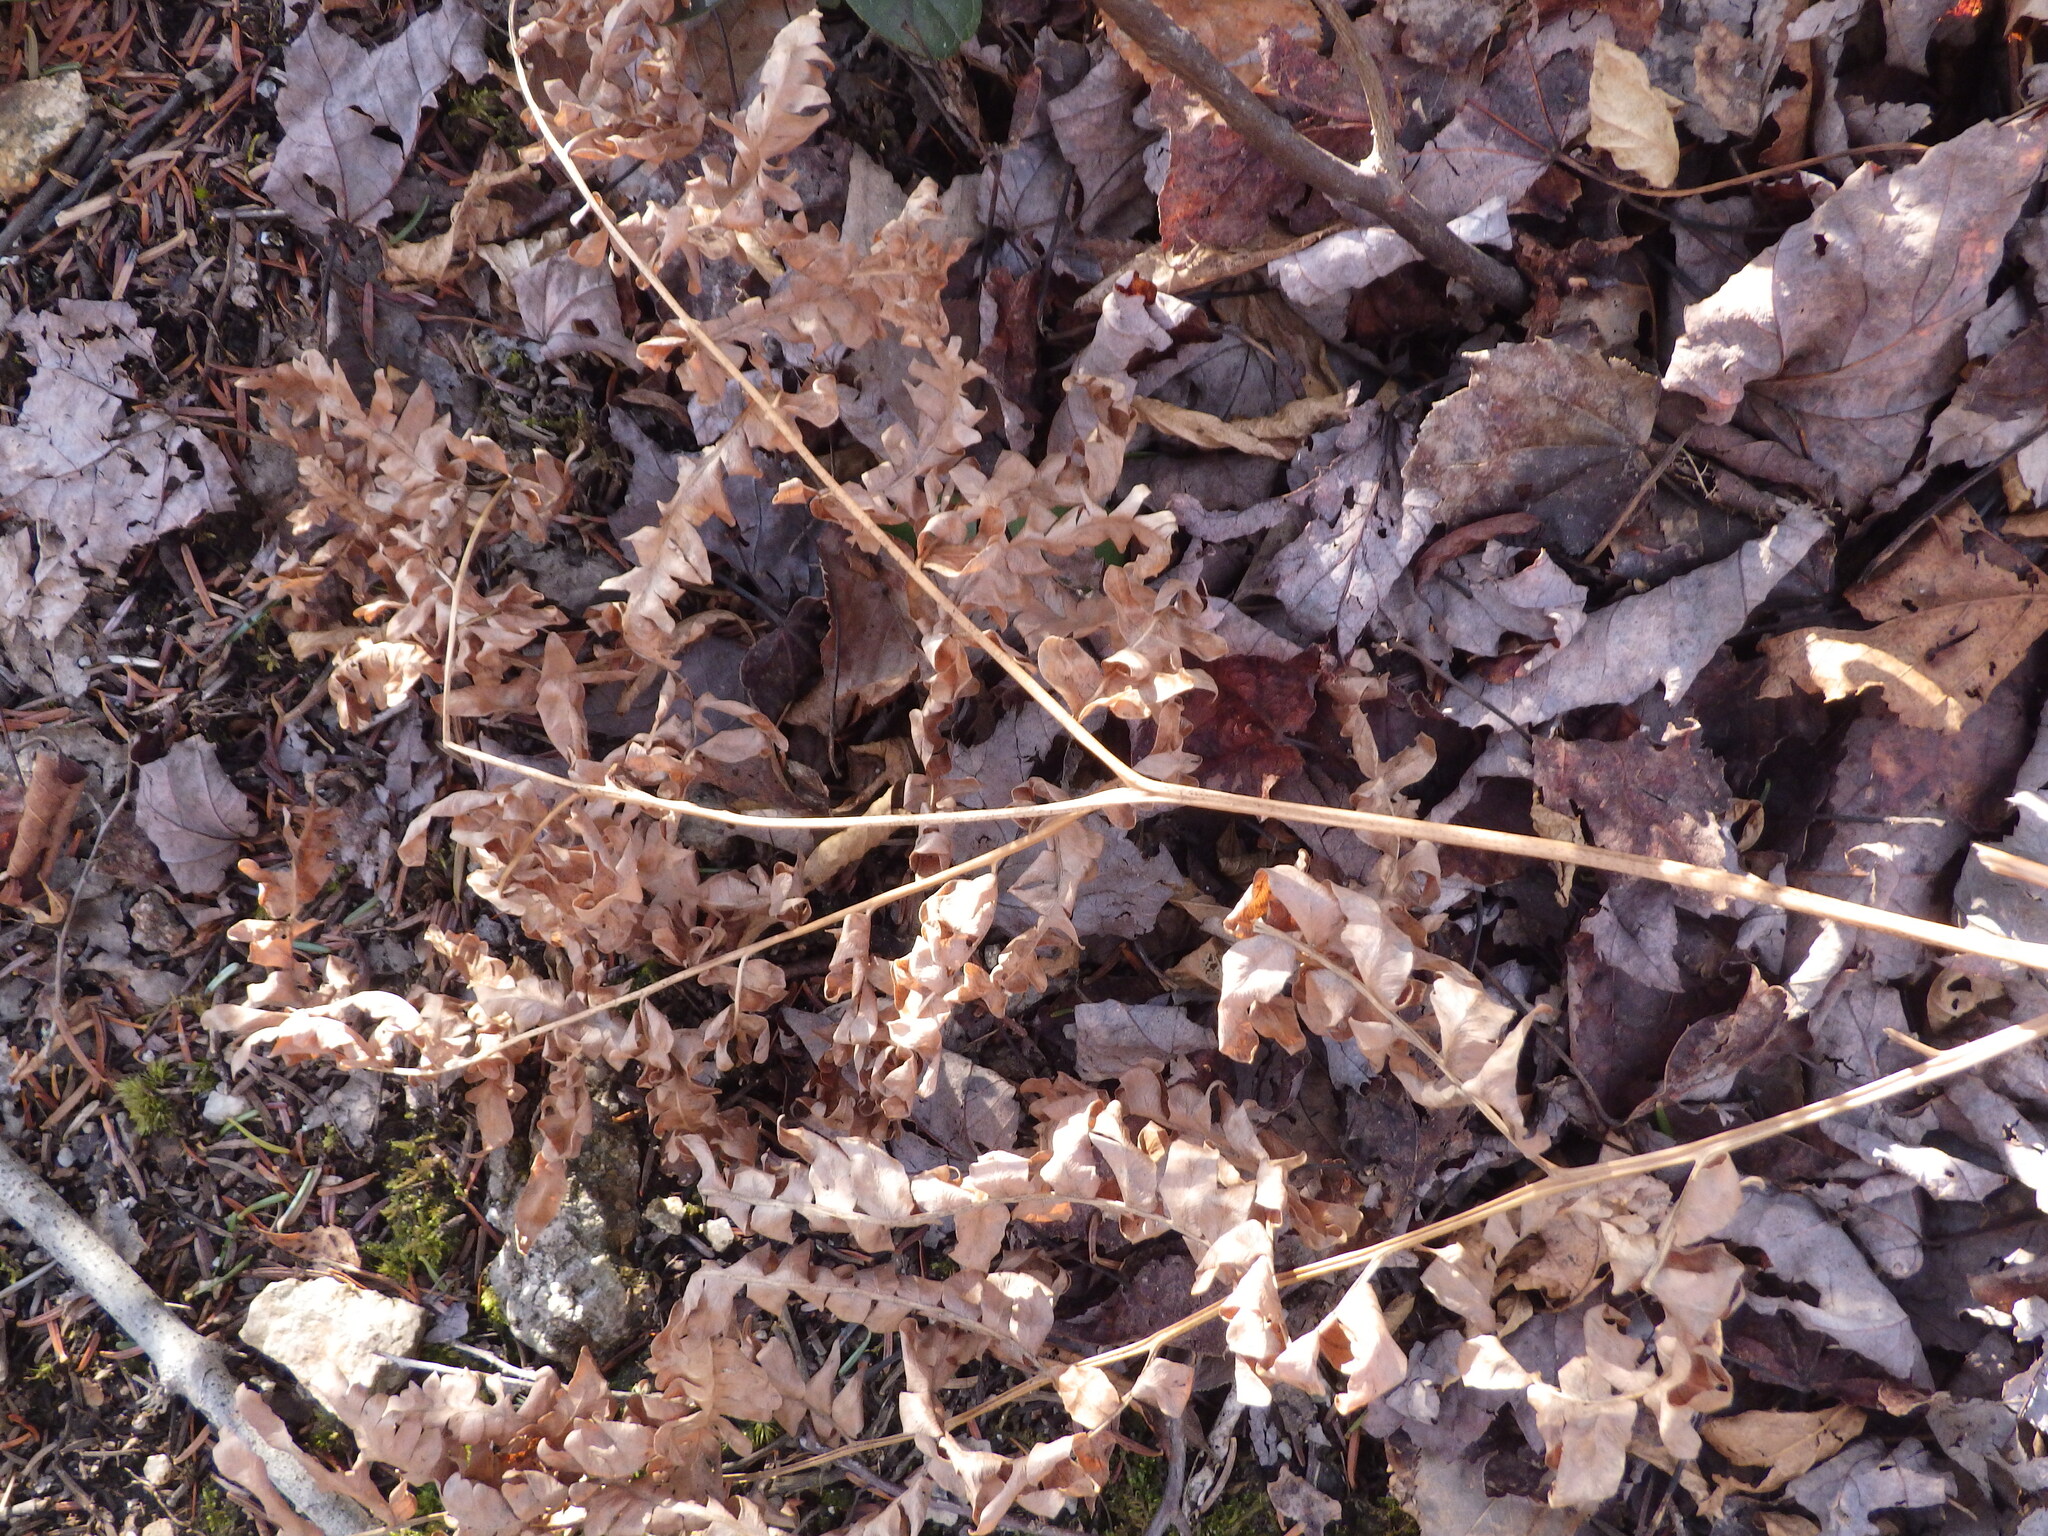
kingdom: Plantae
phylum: Tracheophyta
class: Polypodiopsida
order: Polypodiales
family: Dennstaedtiaceae
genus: Pteridium
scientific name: Pteridium aquilinum
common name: Bracken
